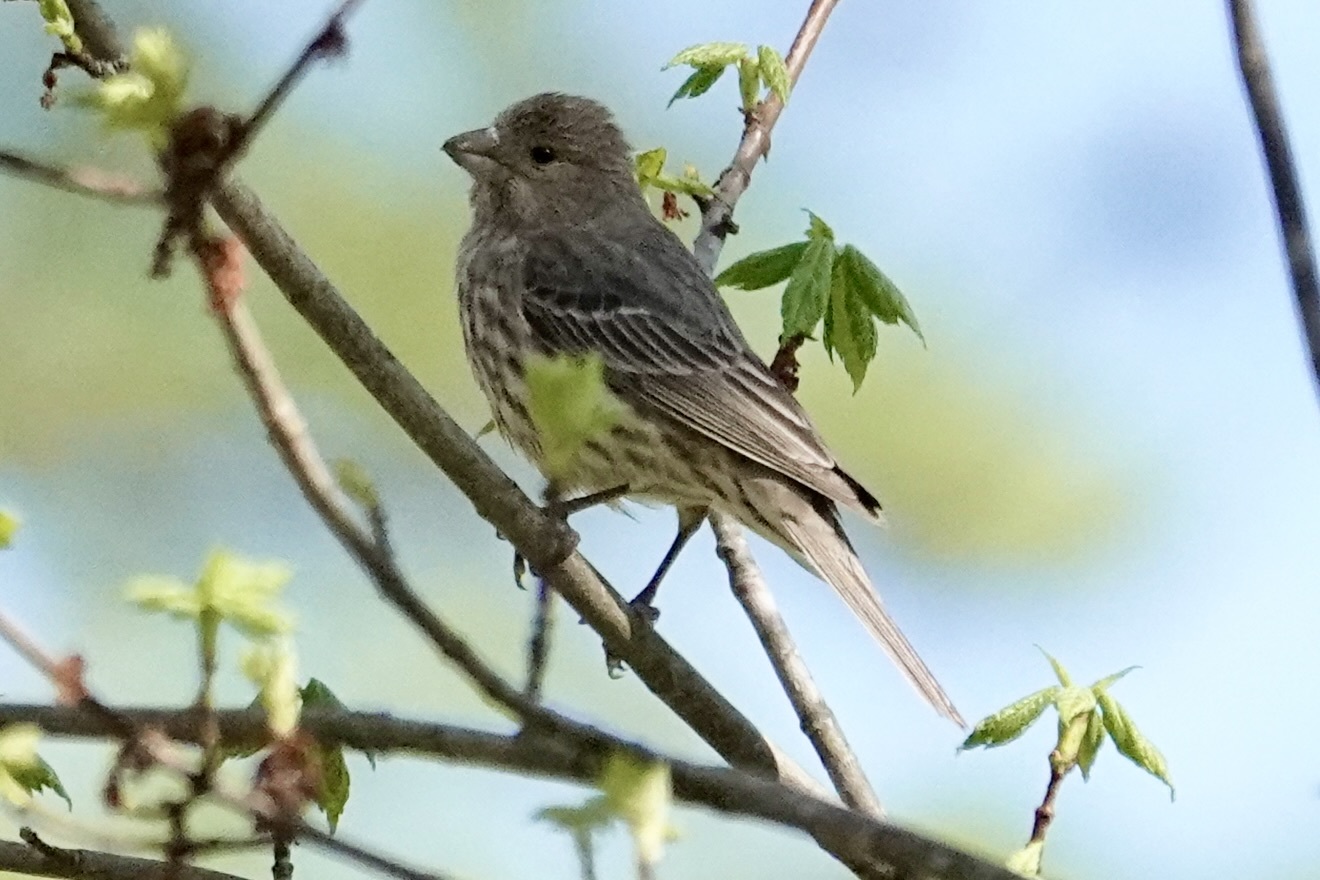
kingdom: Animalia
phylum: Chordata
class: Aves
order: Passeriformes
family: Fringillidae
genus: Haemorhous
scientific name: Haemorhous mexicanus
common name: House finch
